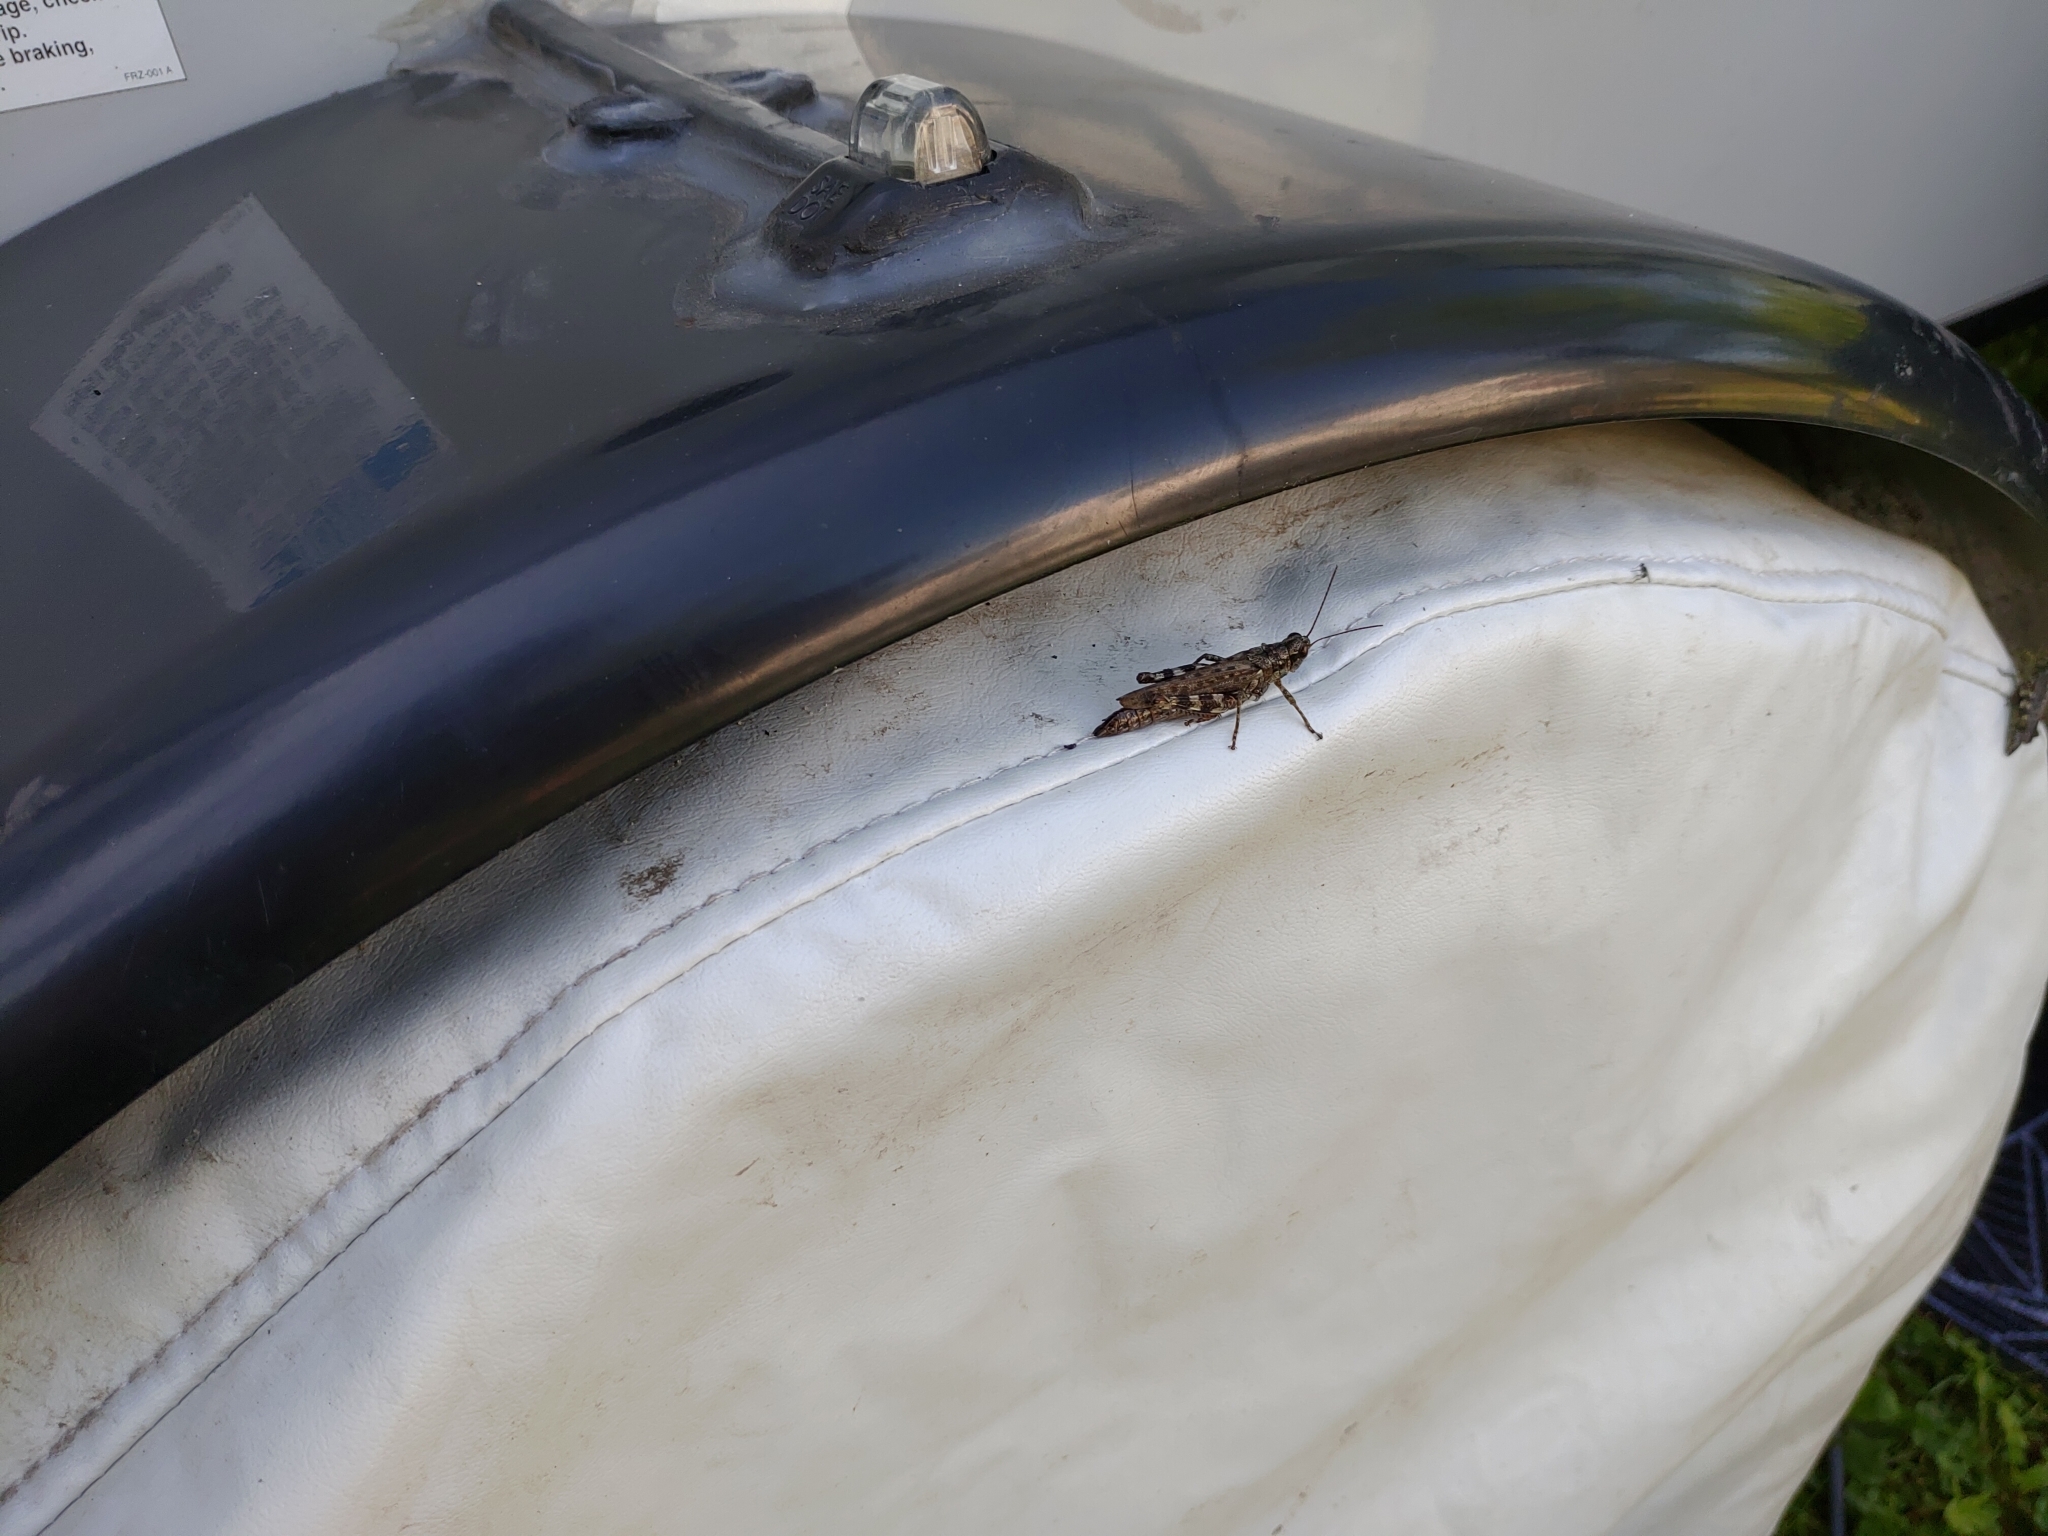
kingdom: Animalia
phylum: Arthropoda
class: Insecta
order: Orthoptera
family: Acrididae
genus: Melanoplus
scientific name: Melanoplus punctulatus
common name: Pine-tree spur-throat grasshopper
